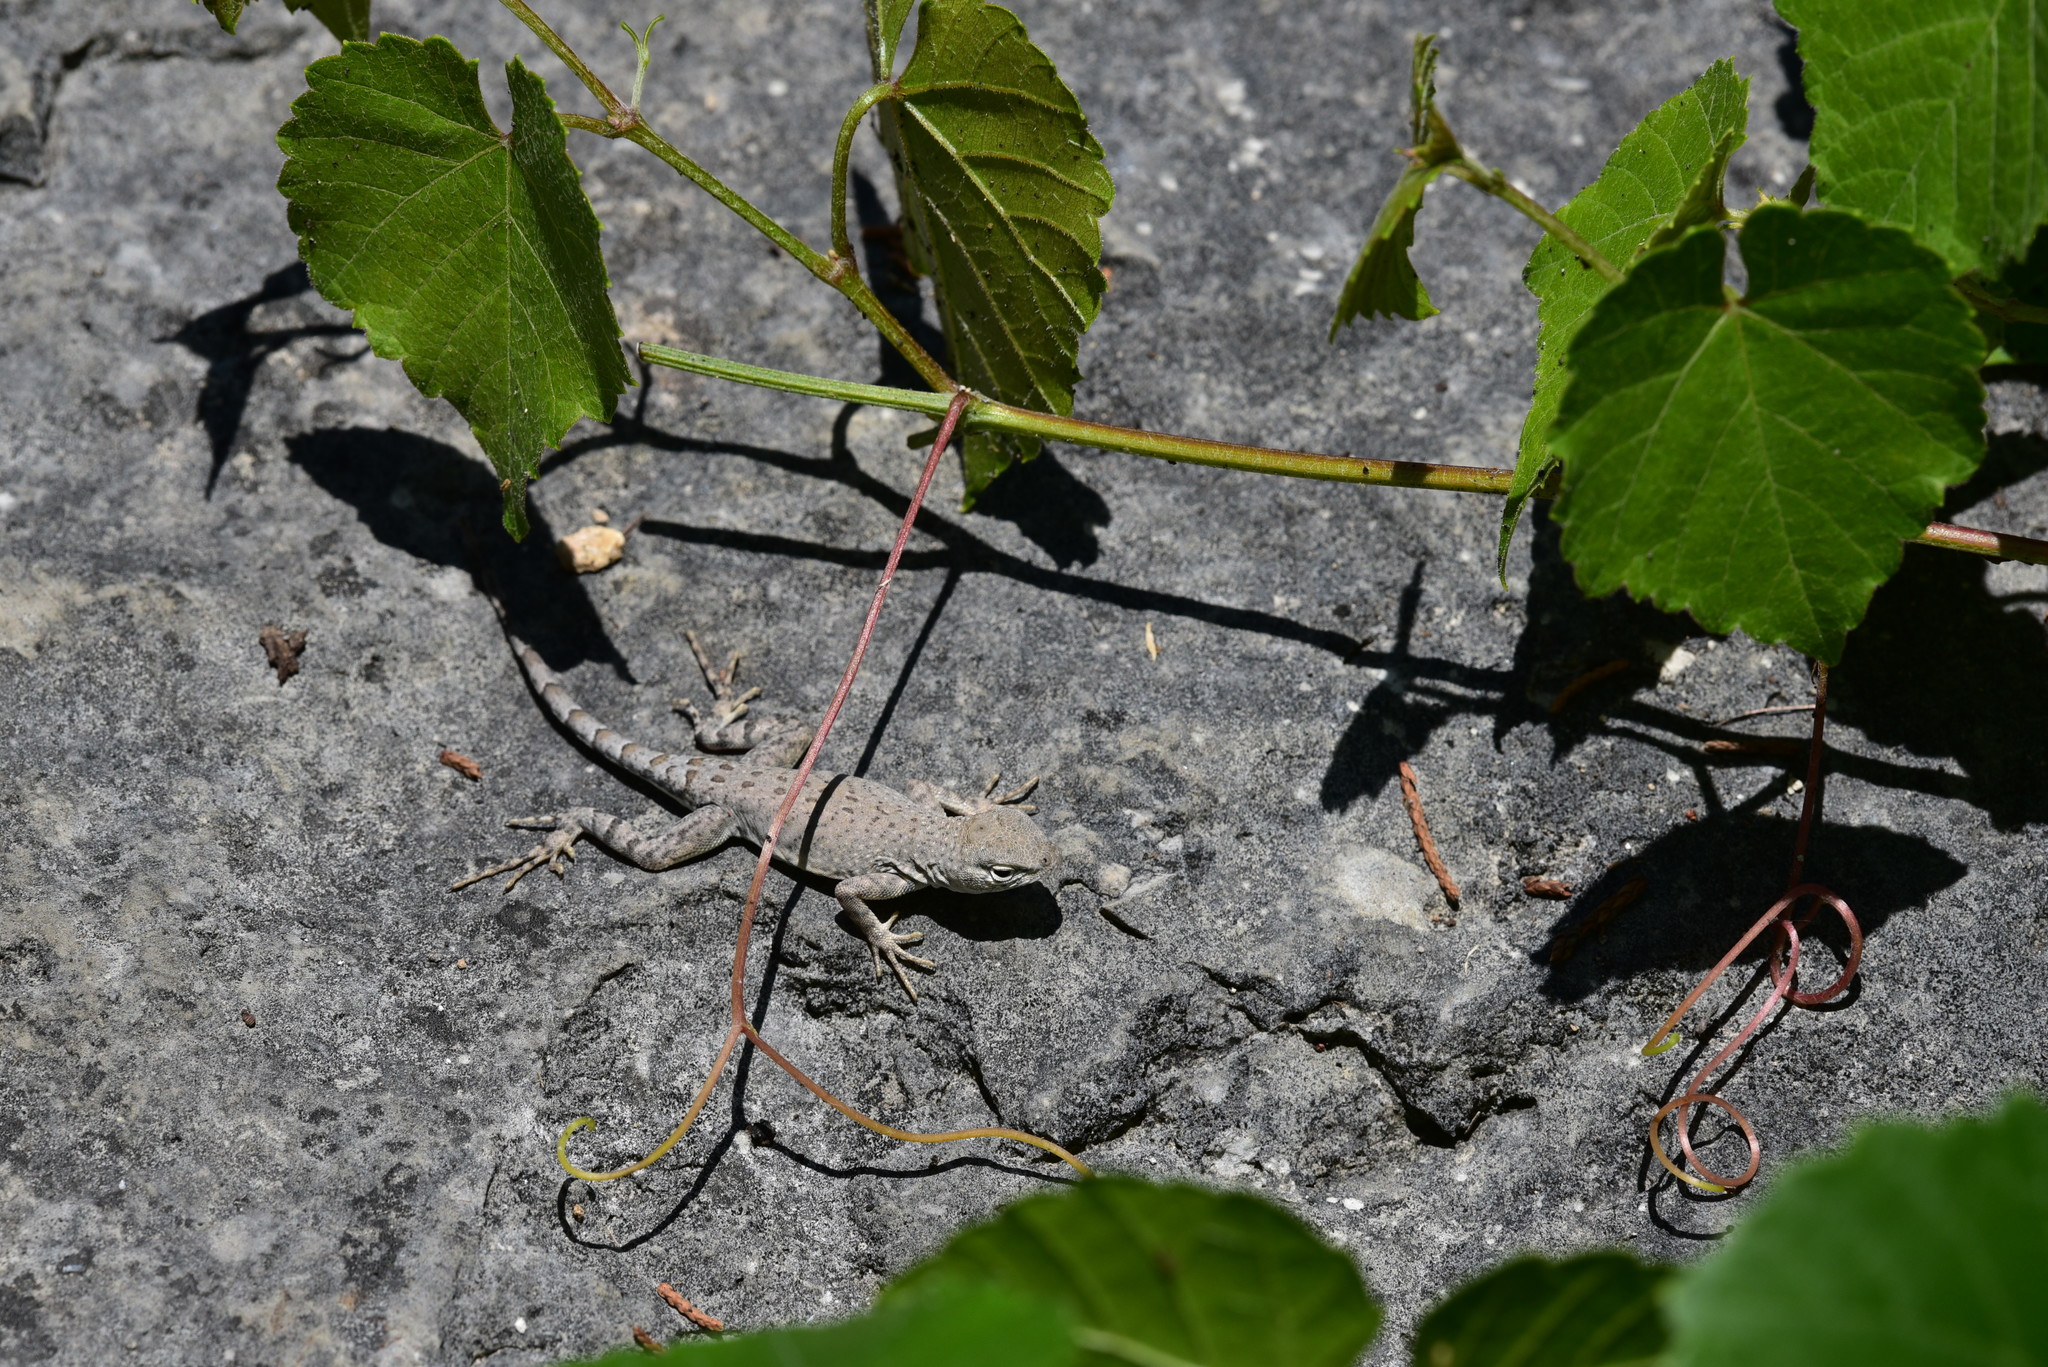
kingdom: Animalia
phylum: Chordata
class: Squamata
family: Phrynosomatidae
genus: Cophosaurus
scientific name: Cophosaurus texanus
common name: Greater earless lizard
